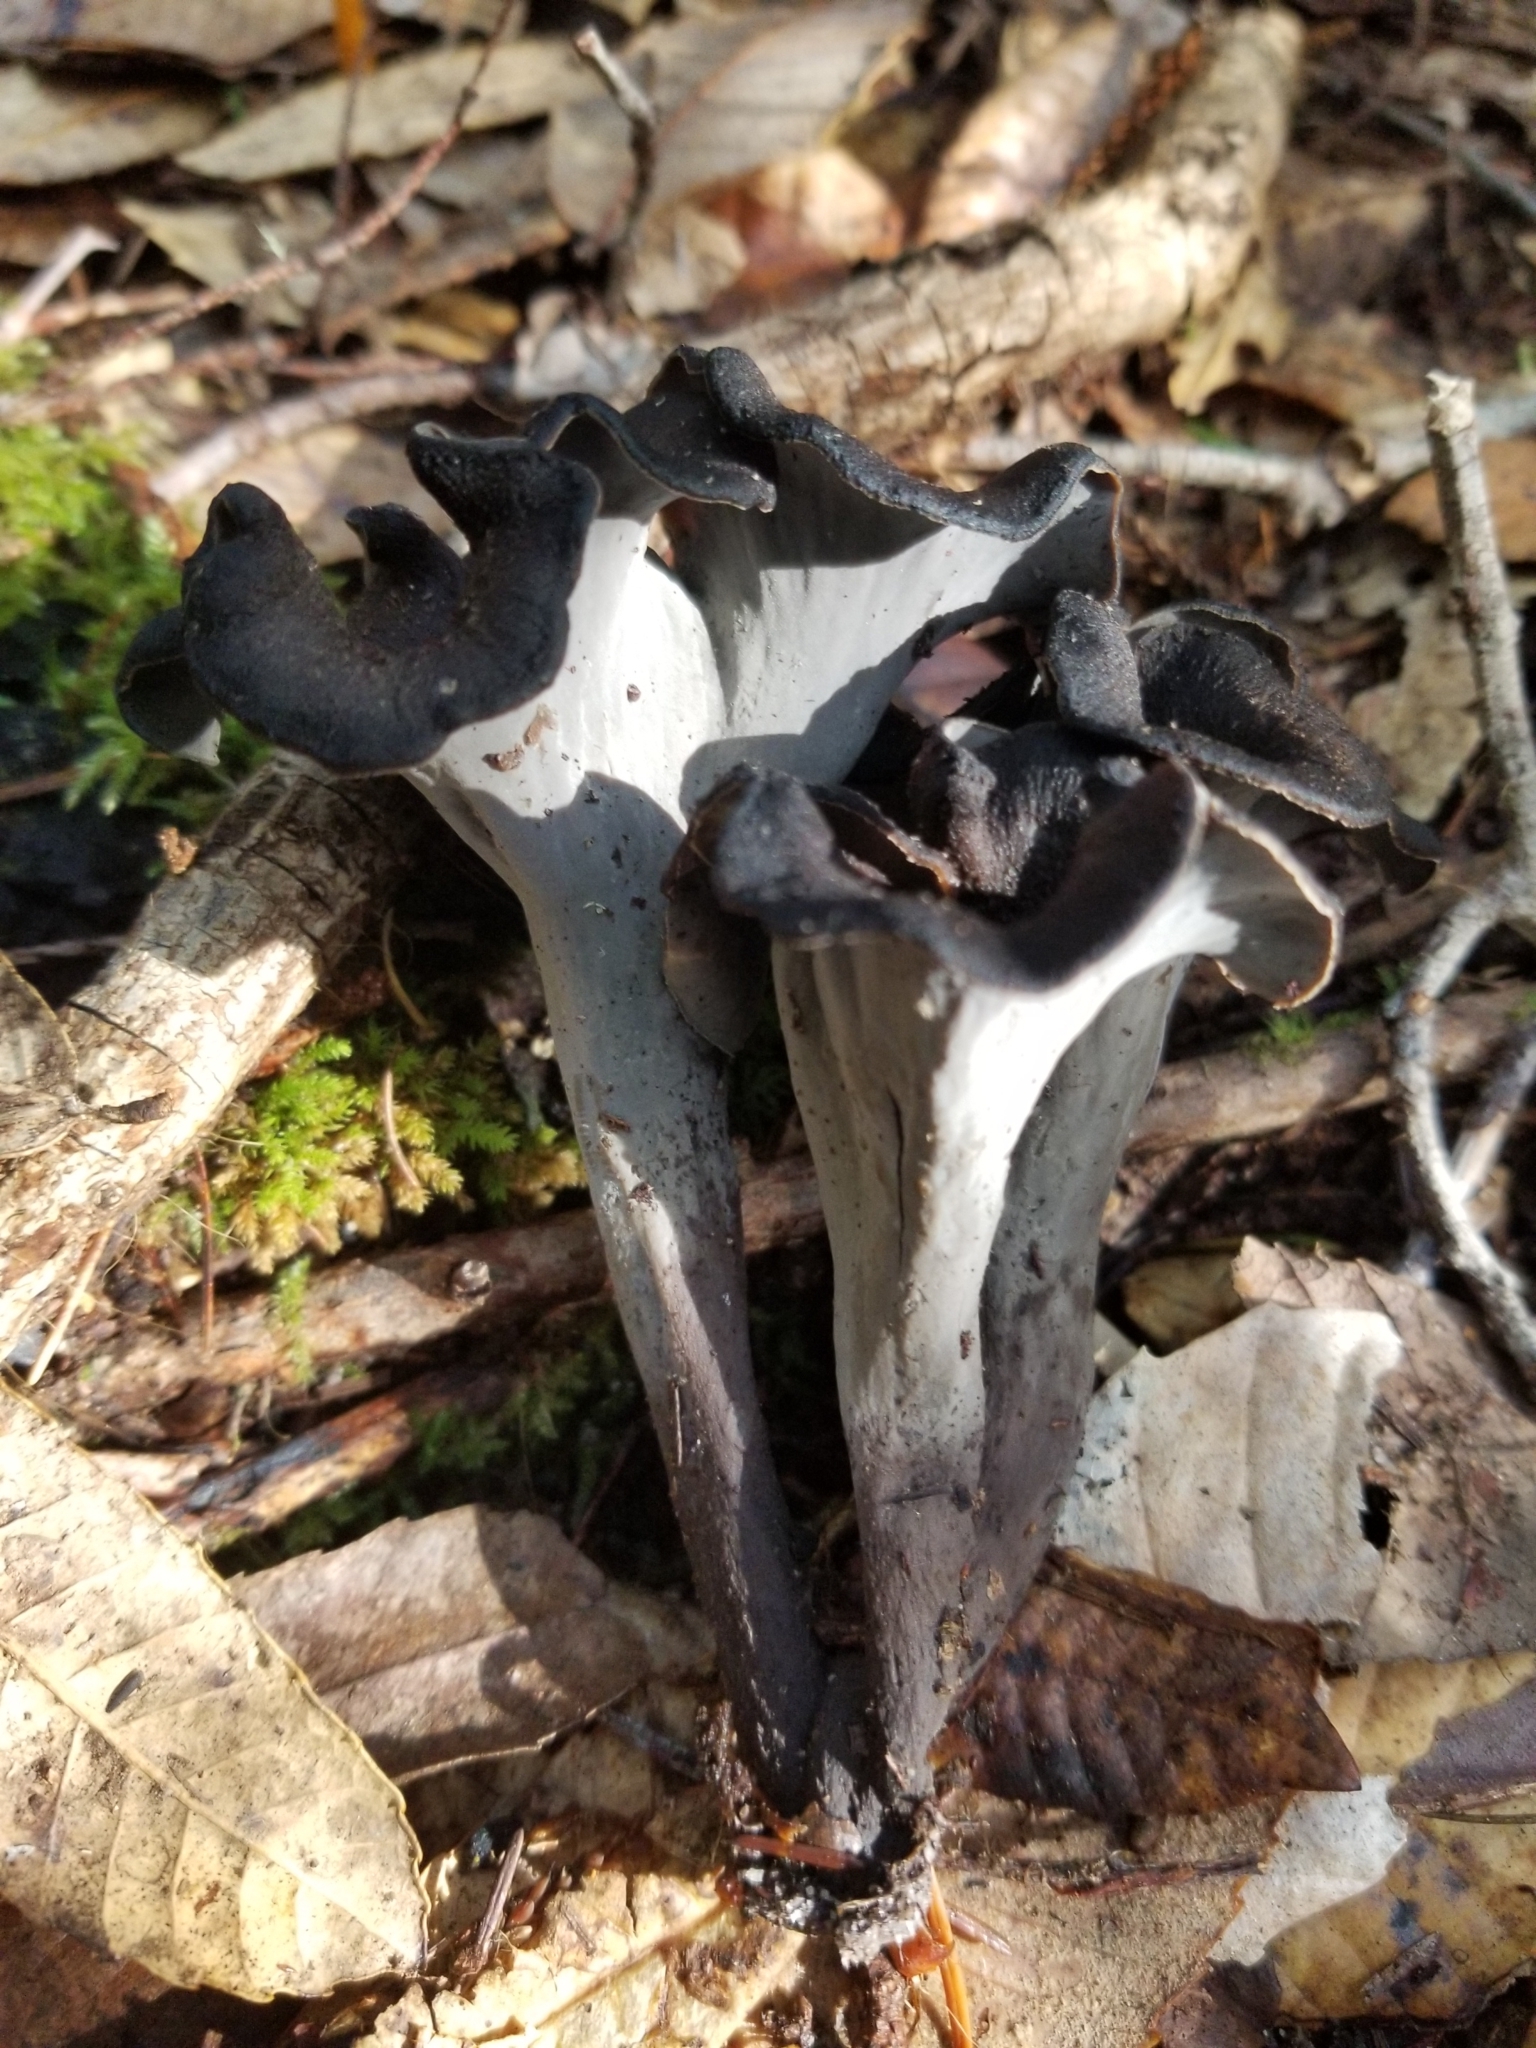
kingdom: Fungi
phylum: Basidiomycota
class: Agaricomycetes
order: Cantharellales
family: Hydnaceae
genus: Craterellus
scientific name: Craterellus calicornucopioides
